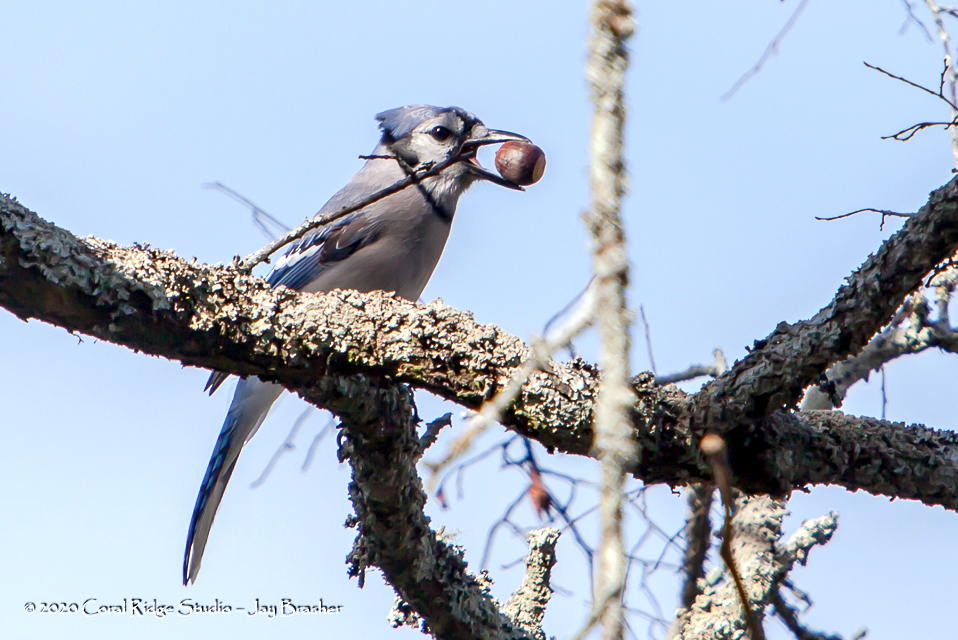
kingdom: Animalia
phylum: Chordata
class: Aves
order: Passeriformes
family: Corvidae
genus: Cyanocitta
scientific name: Cyanocitta cristata
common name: Blue jay
